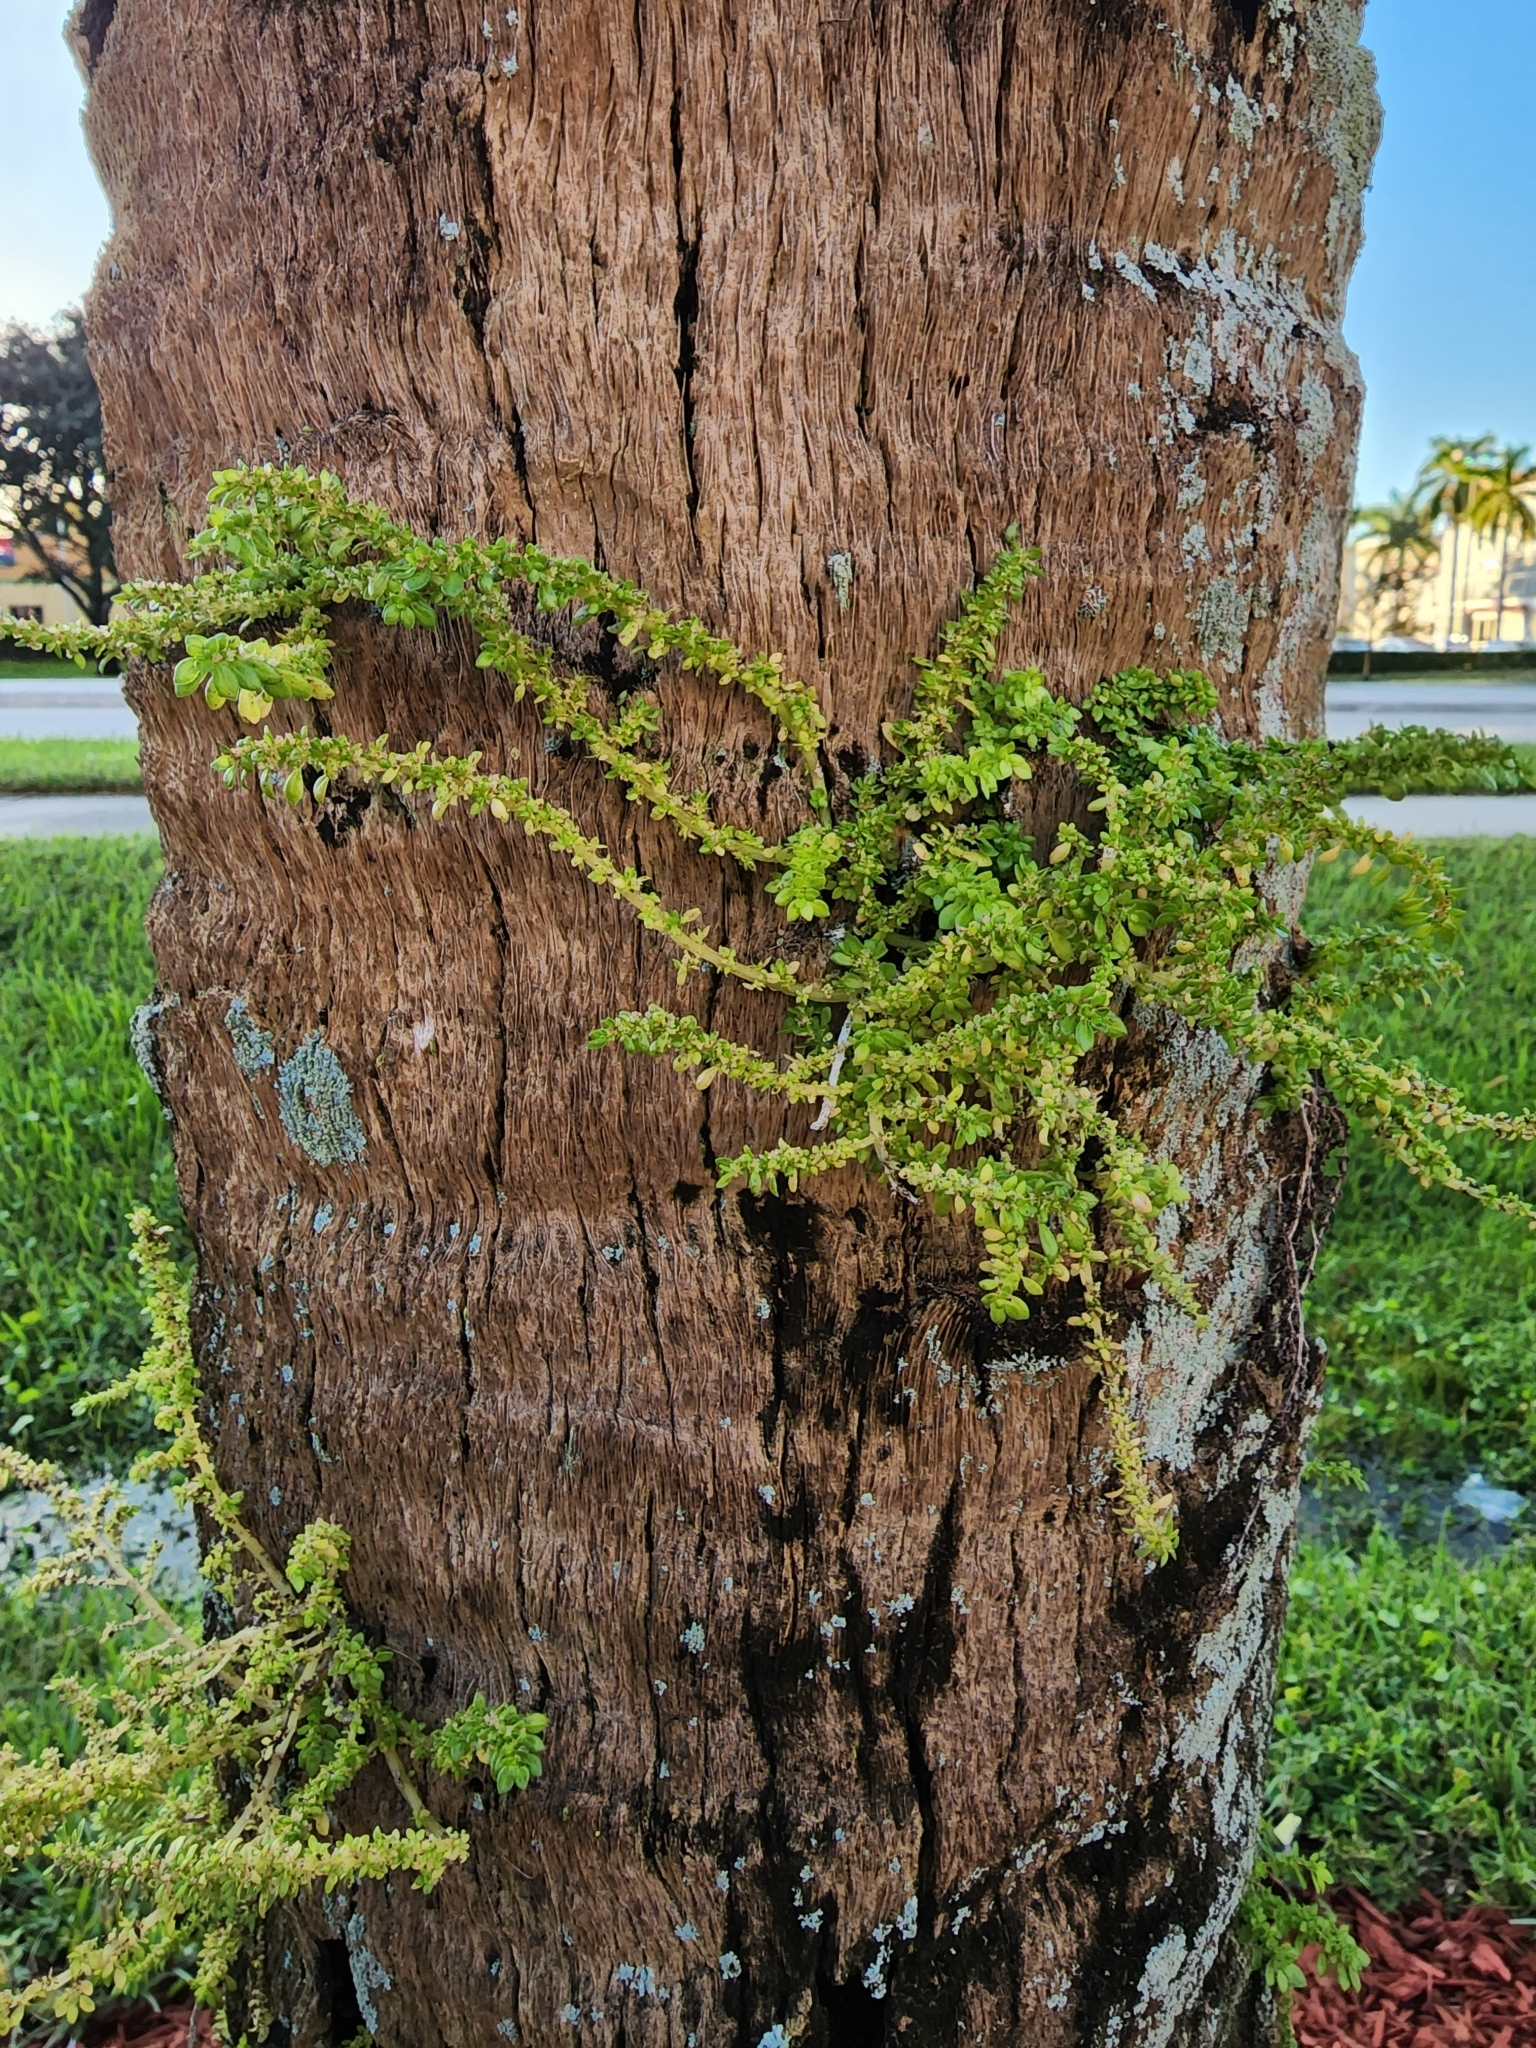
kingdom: Plantae
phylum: Tracheophyta
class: Magnoliopsida
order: Rosales
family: Urticaceae
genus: Pilea
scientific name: Pilea microphylla
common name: Artillery-plant
